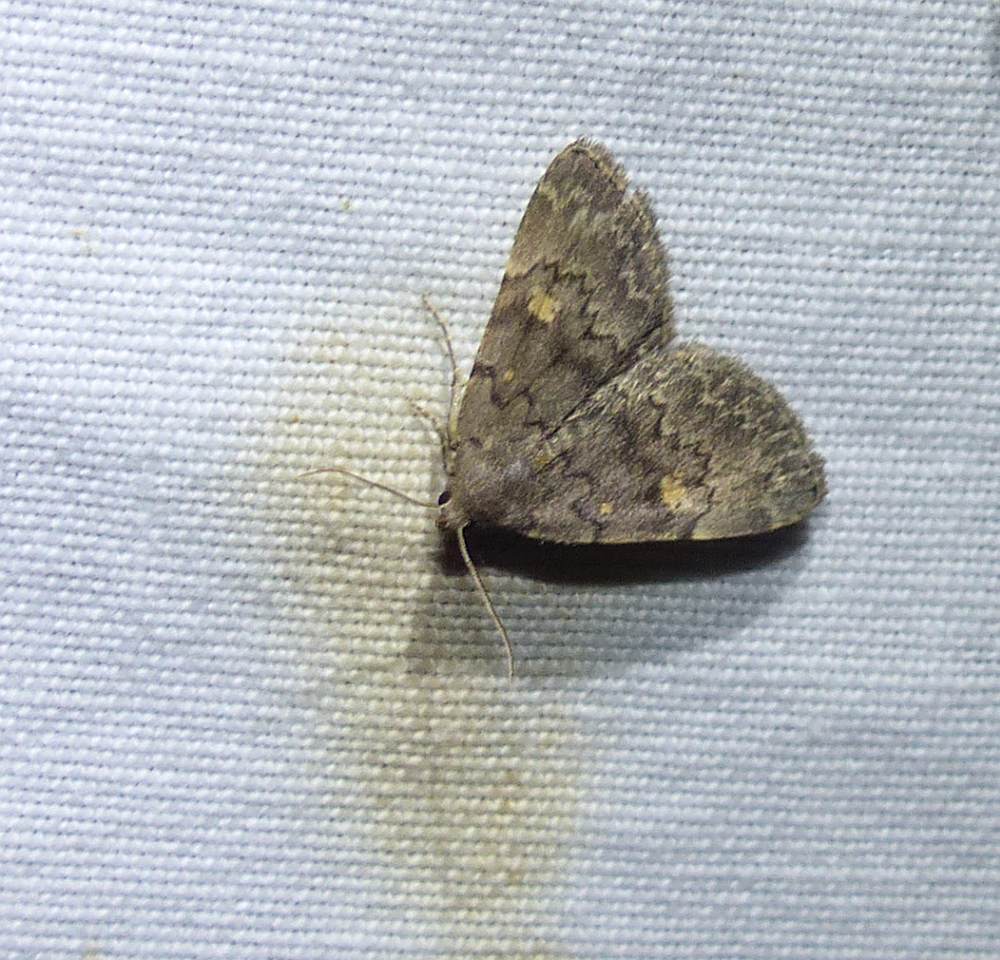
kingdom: Animalia
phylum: Arthropoda
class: Insecta
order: Lepidoptera
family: Erebidae
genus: Idia
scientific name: Idia aemula
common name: Common idia moth
